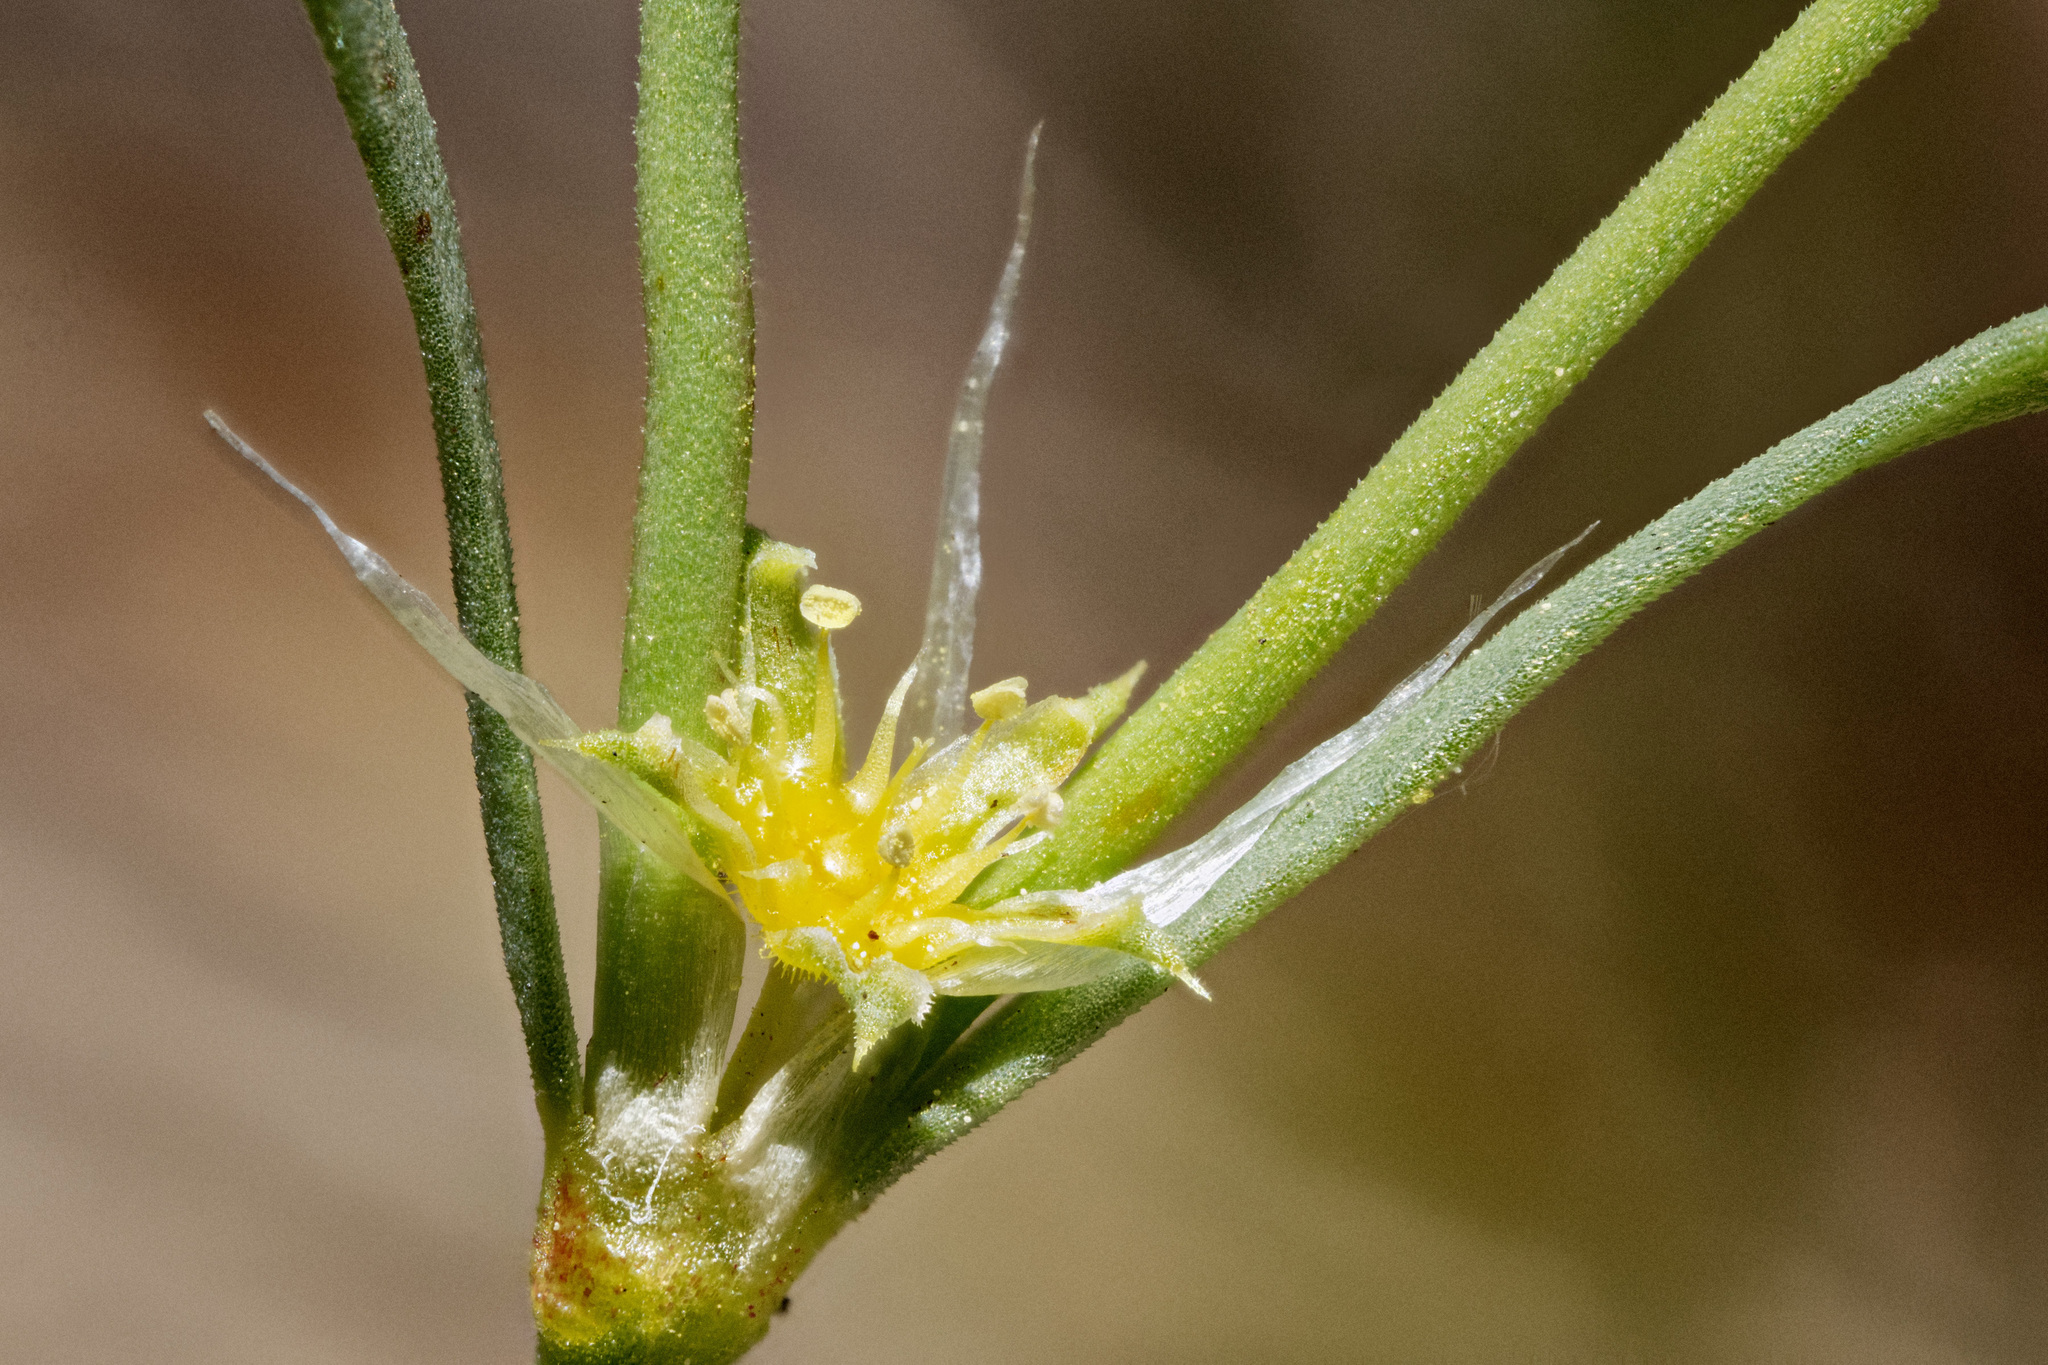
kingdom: Plantae
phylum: Tracheophyta
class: Magnoliopsida
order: Caryophyllales
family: Caryophyllaceae
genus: Paronychia
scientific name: Paronychia jamesii
